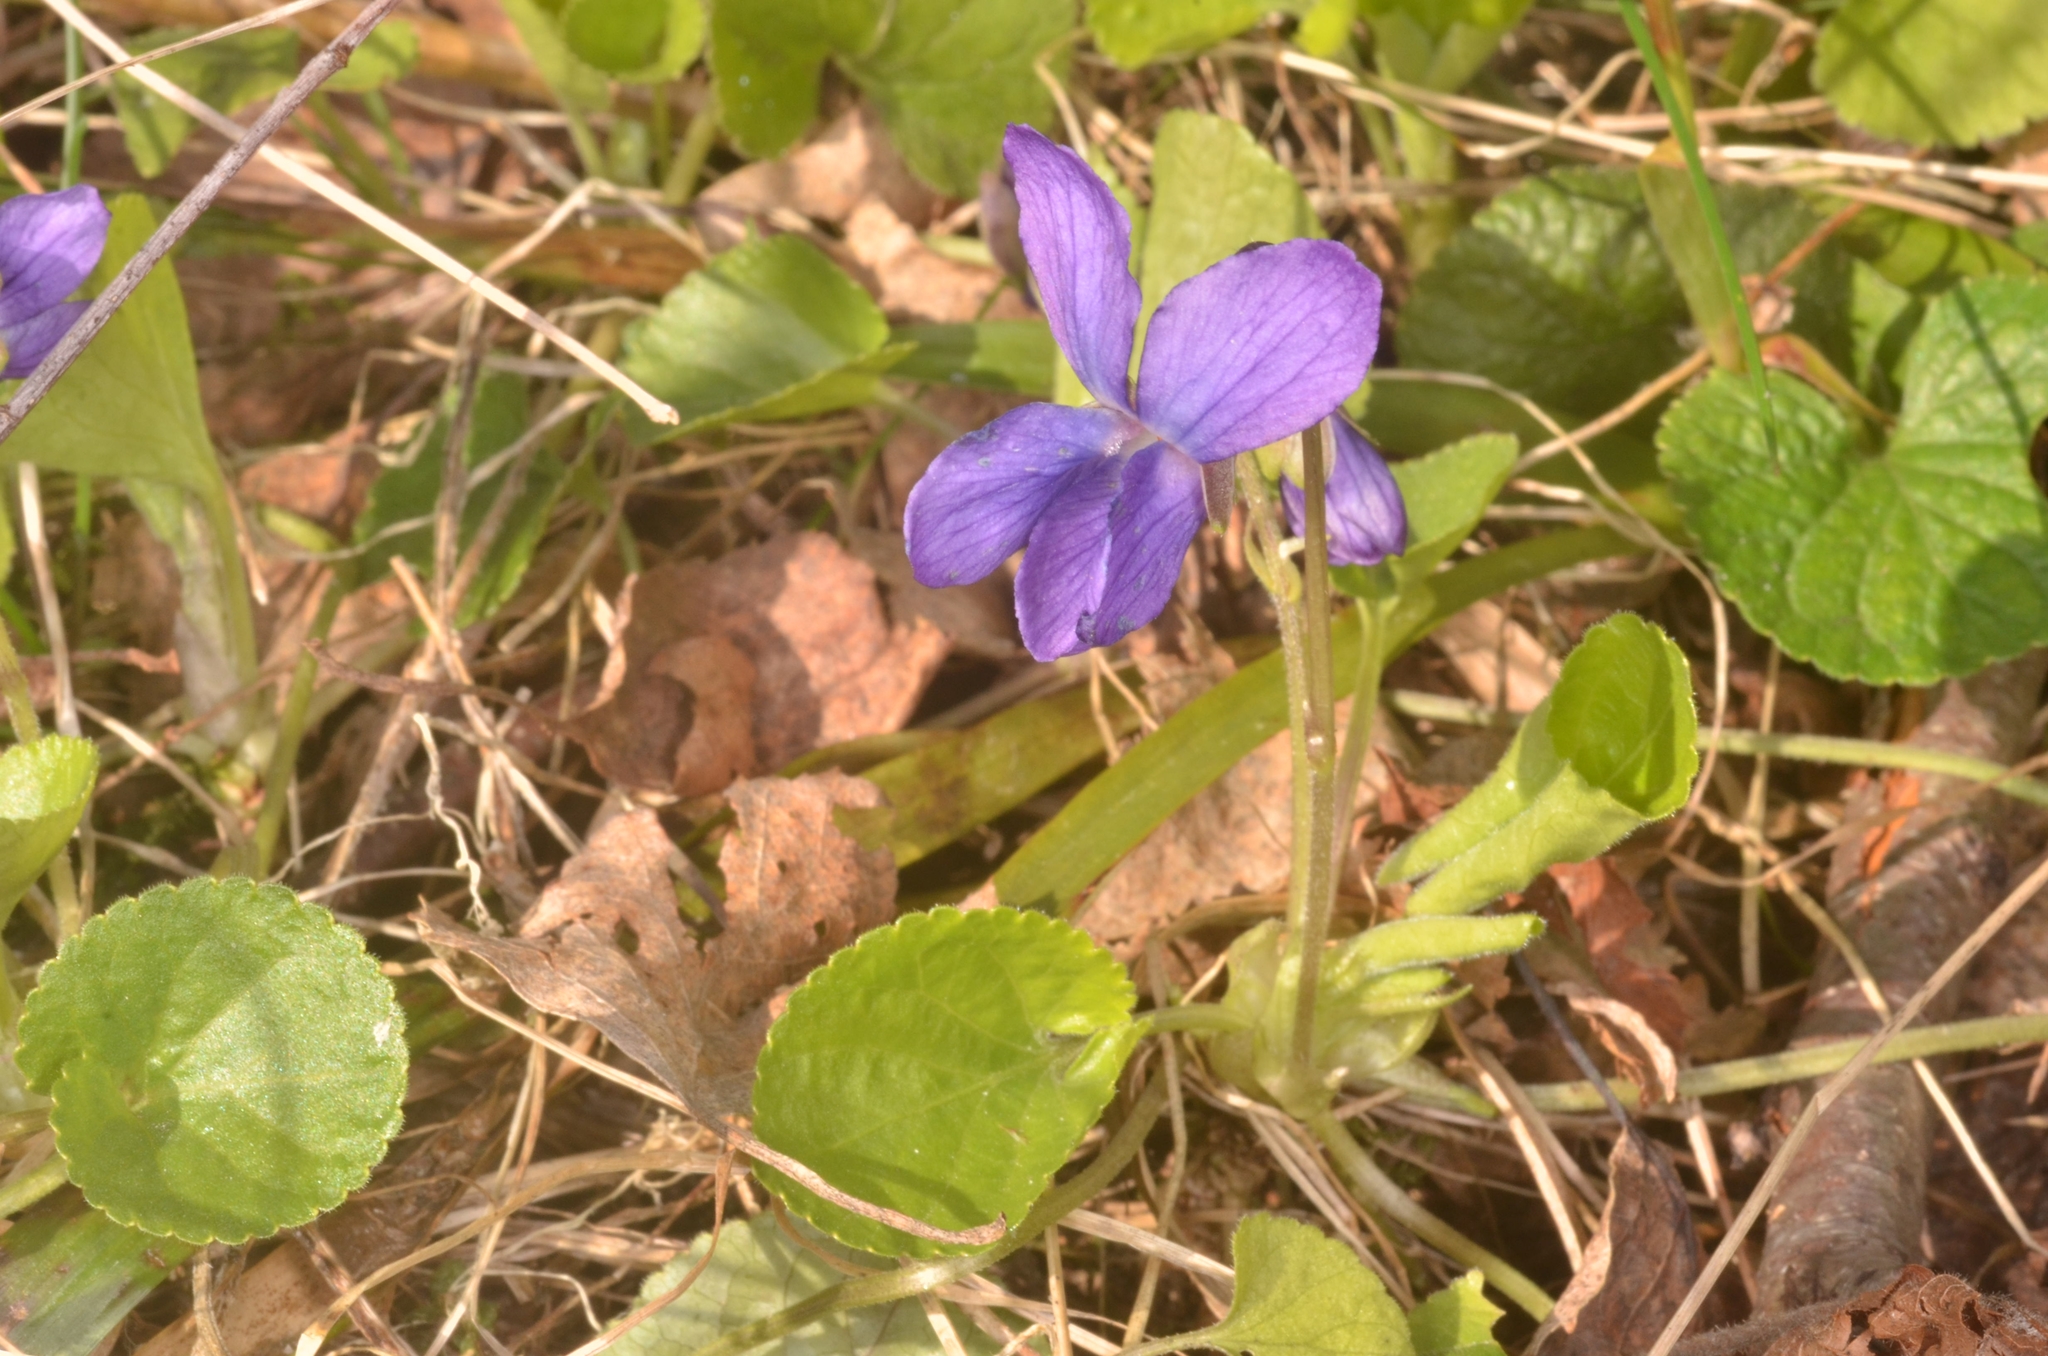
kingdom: Plantae
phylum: Tracheophyta
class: Magnoliopsida
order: Malpighiales
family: Violaceae
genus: Viola
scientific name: Viola odorata
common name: Sweet violet
